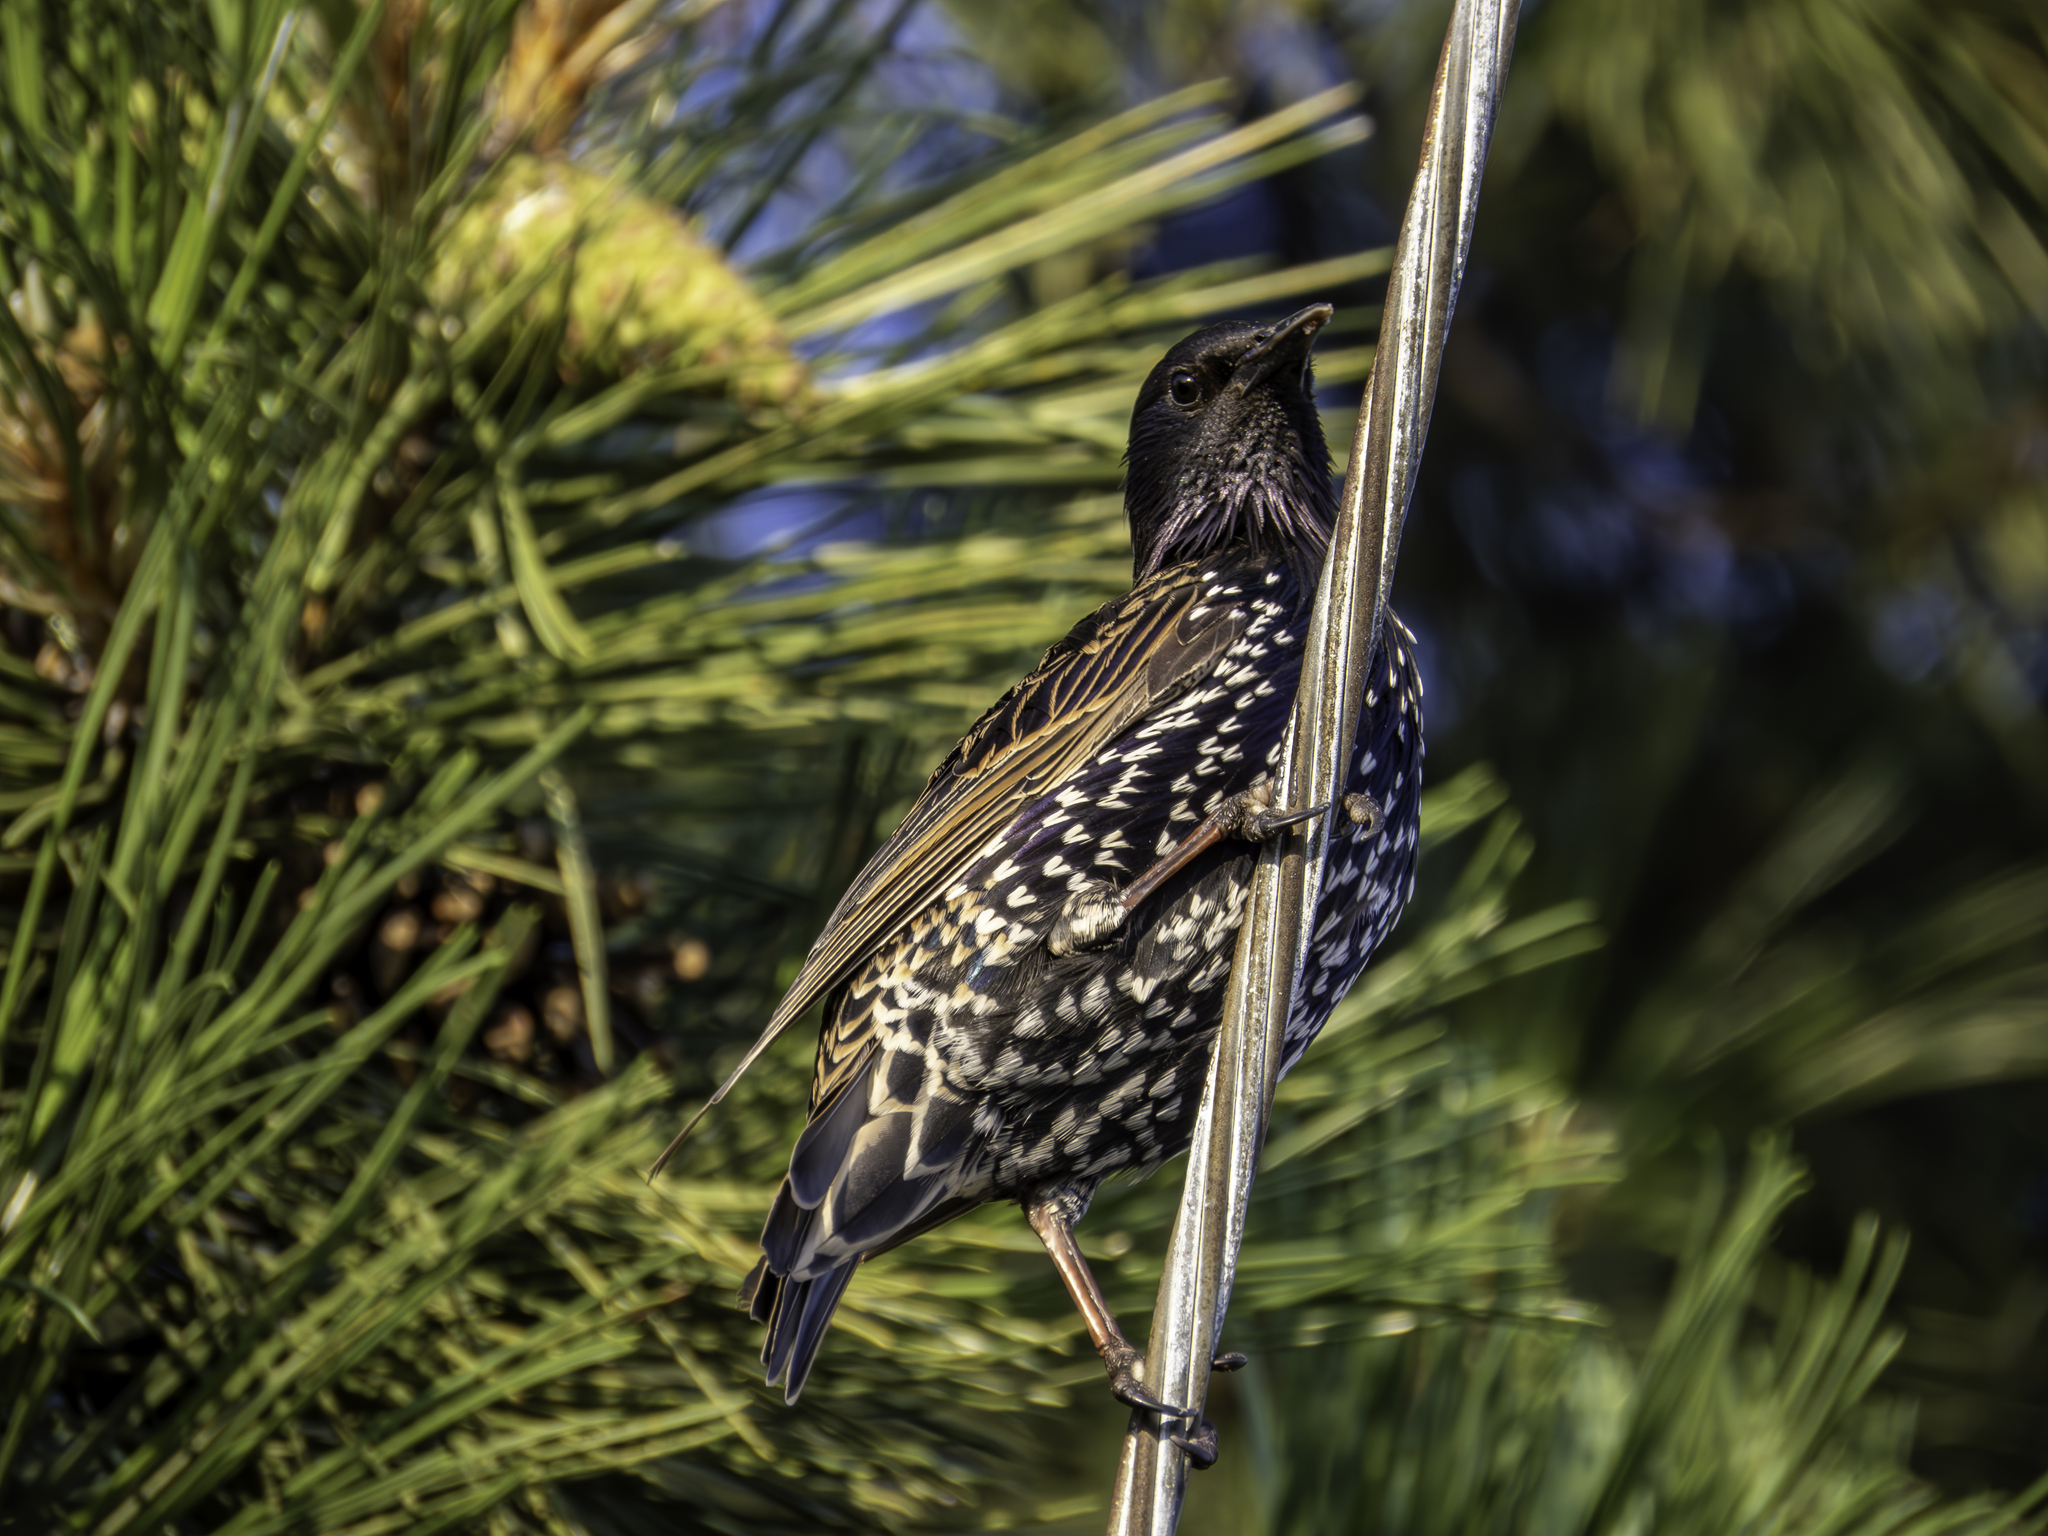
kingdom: Animalia
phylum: Chordata
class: Aves
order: Passeriformes
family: Sturnidae
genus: Sturnus
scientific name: Sturnus vulgaris
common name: Common starling
